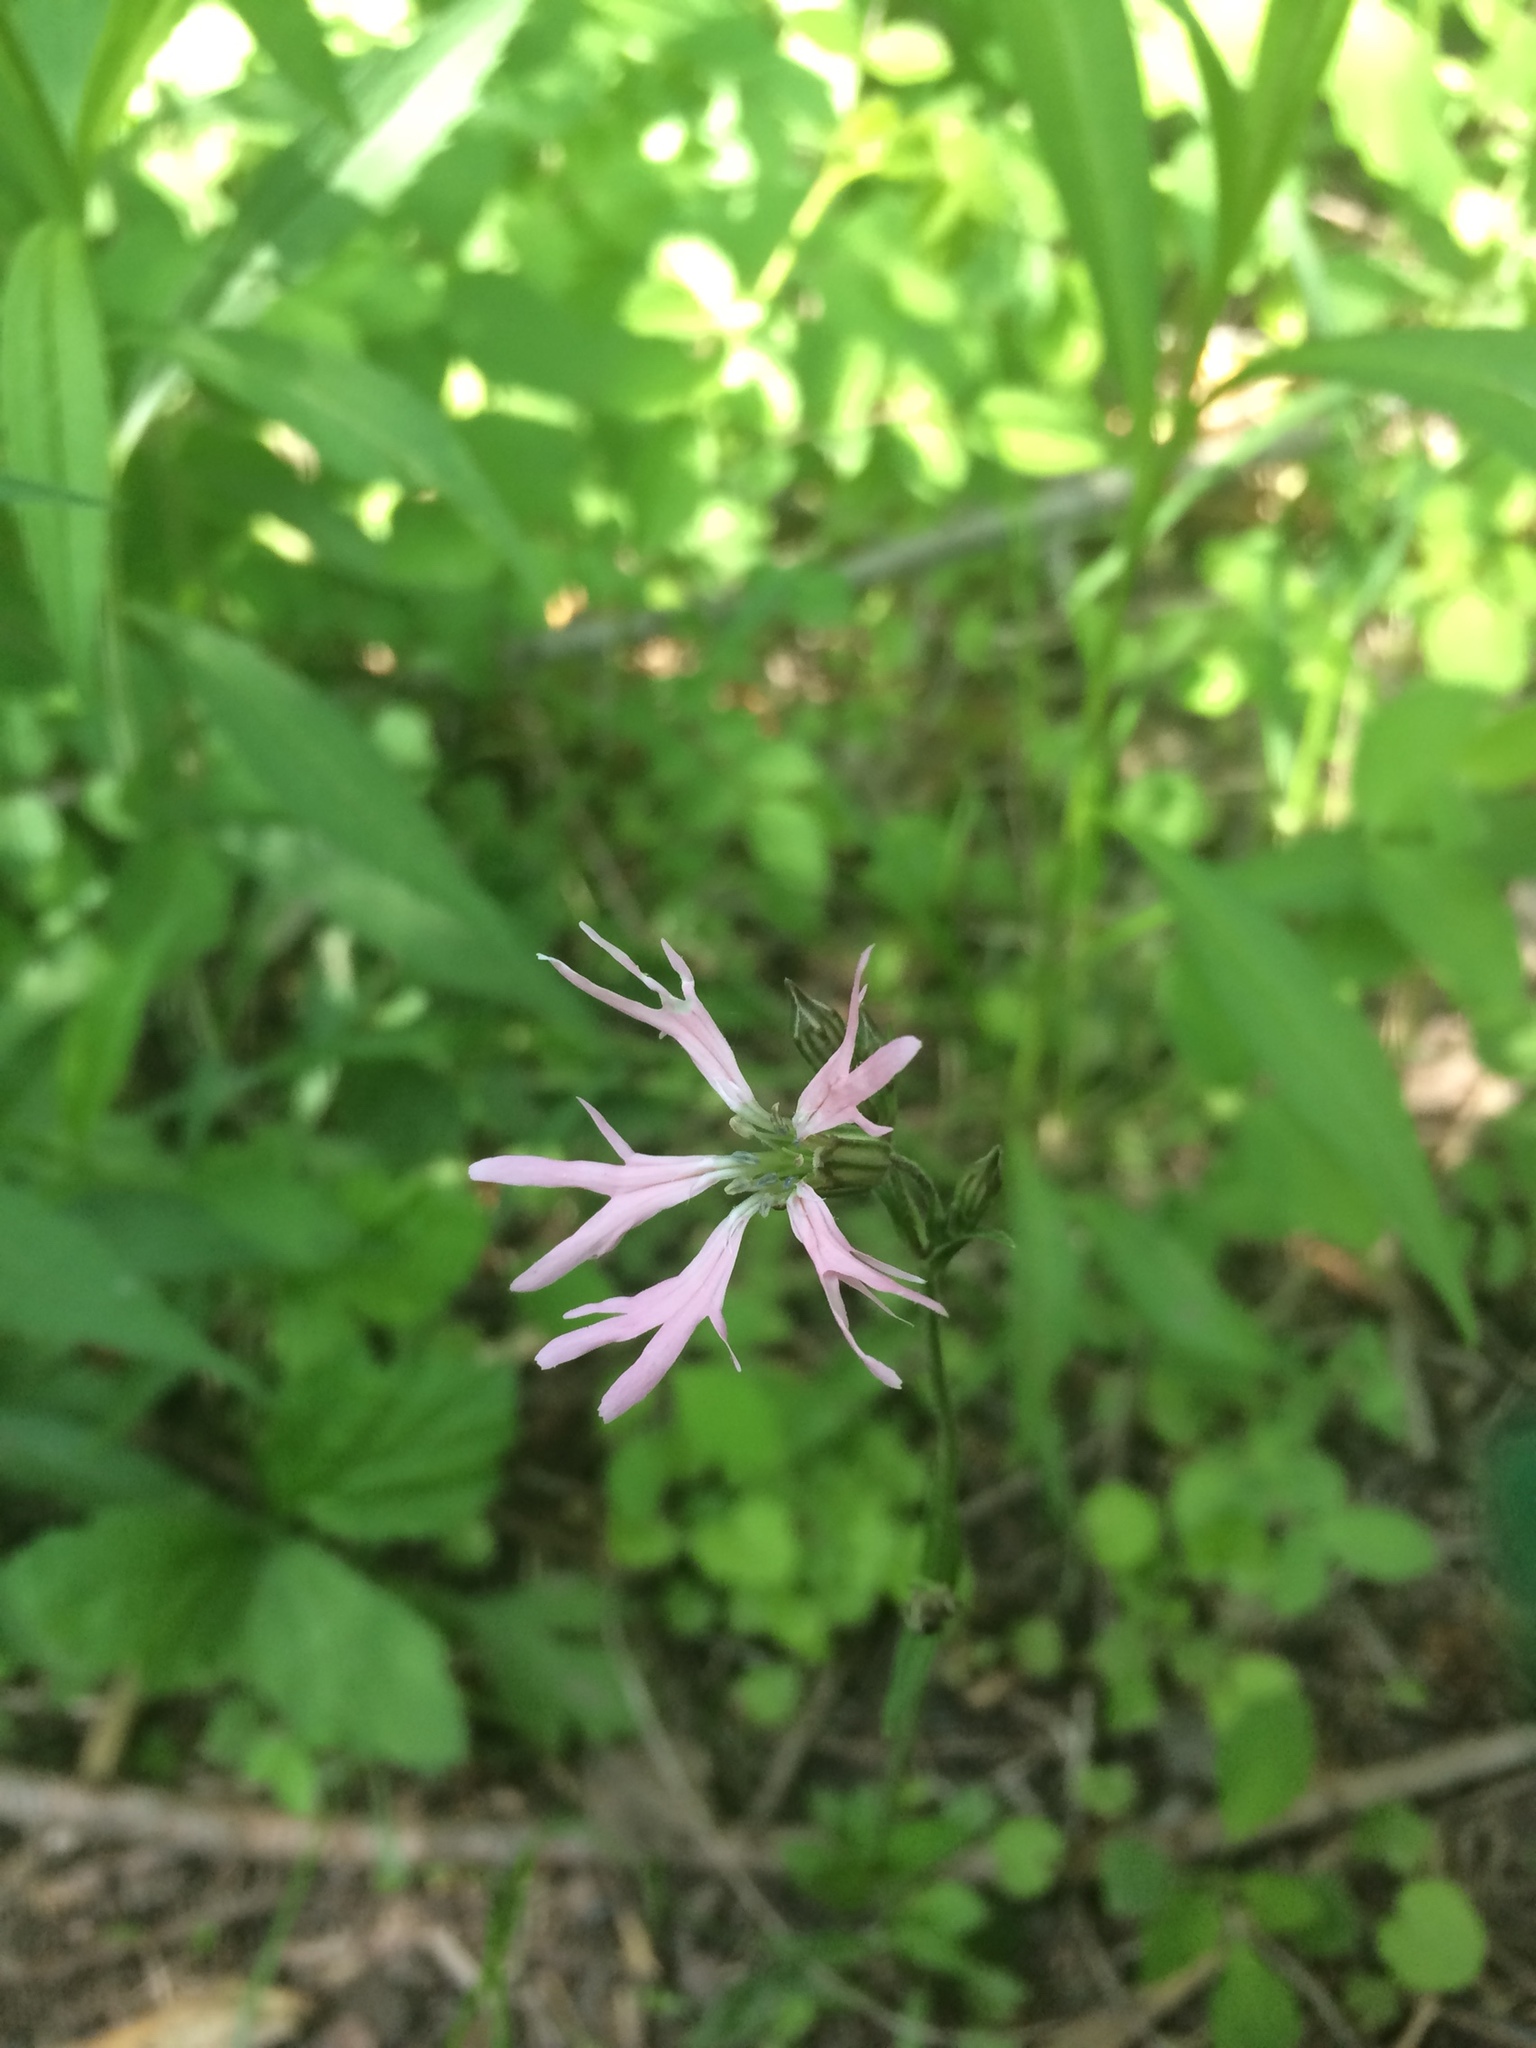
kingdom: Plantae
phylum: Tracheophyta
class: Magnoliopsida
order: Caryophyllales
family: Caryophyllaceae
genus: Silene
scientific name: Silene flos-cuculi
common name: Ragged-robin
